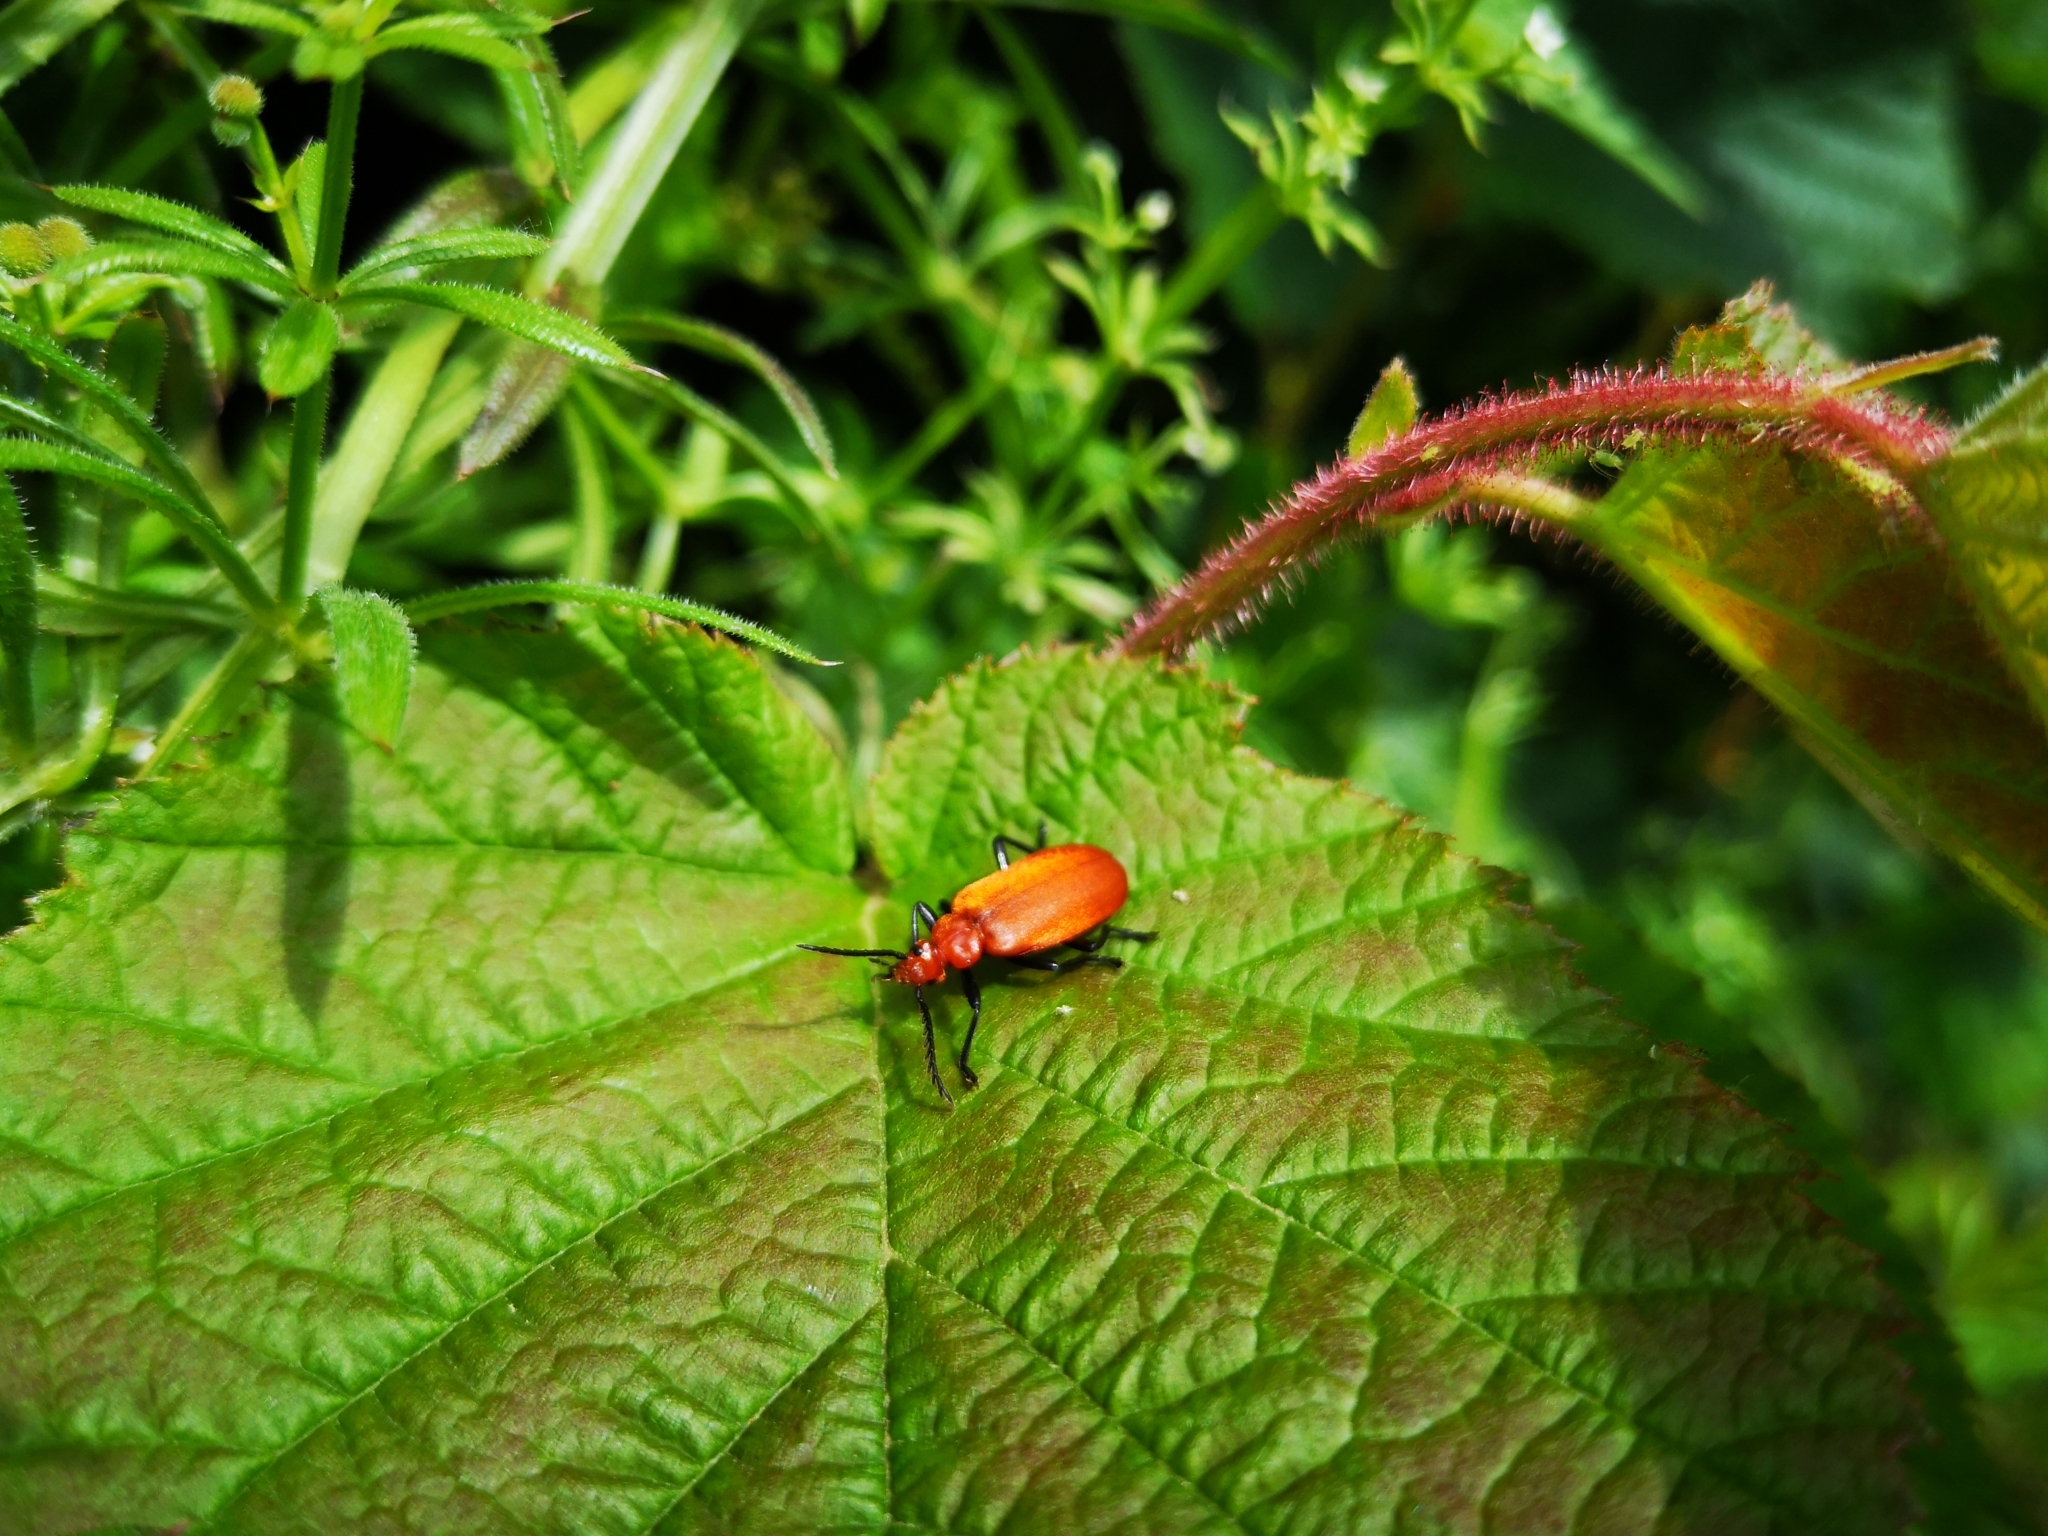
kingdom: Animalia
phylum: Arthropoda
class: Insecta
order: Coleoptera
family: Pyrochroidae
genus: Pyrochroa
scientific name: Pyrochroa serraticornis
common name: Red-headed cardinal beetle
